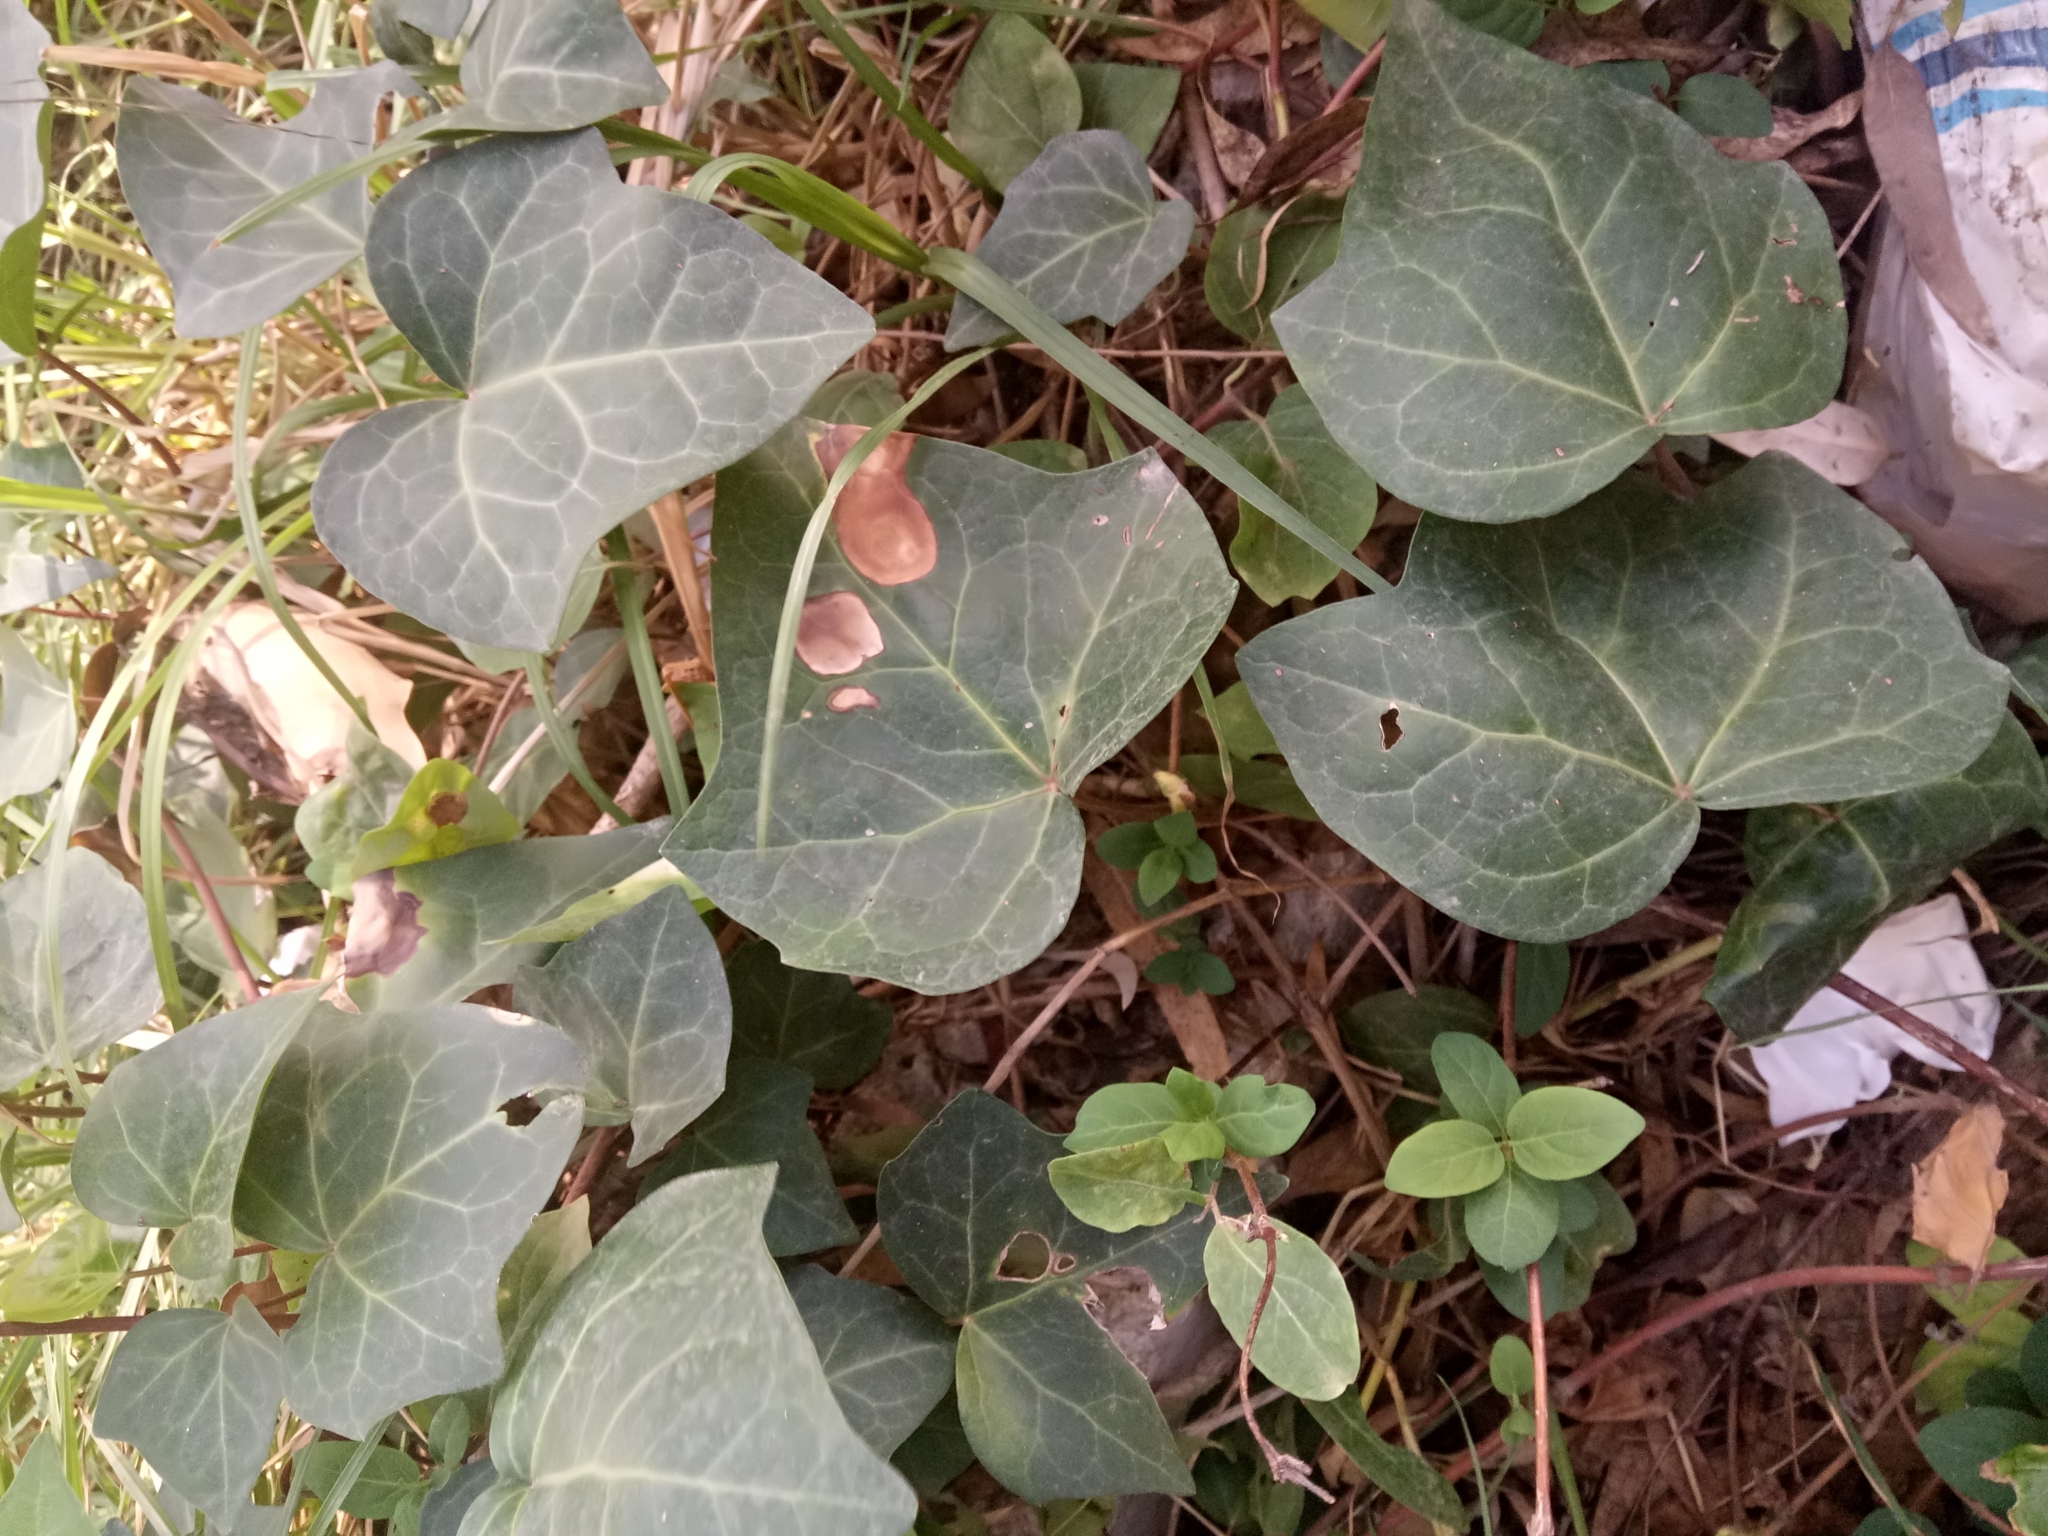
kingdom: Plantae
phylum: Tracheophyta
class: Magnoliopsida
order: Apiales
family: Araliaceae
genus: Hedera
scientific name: Hedera algeriensis
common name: Algerian ivy
